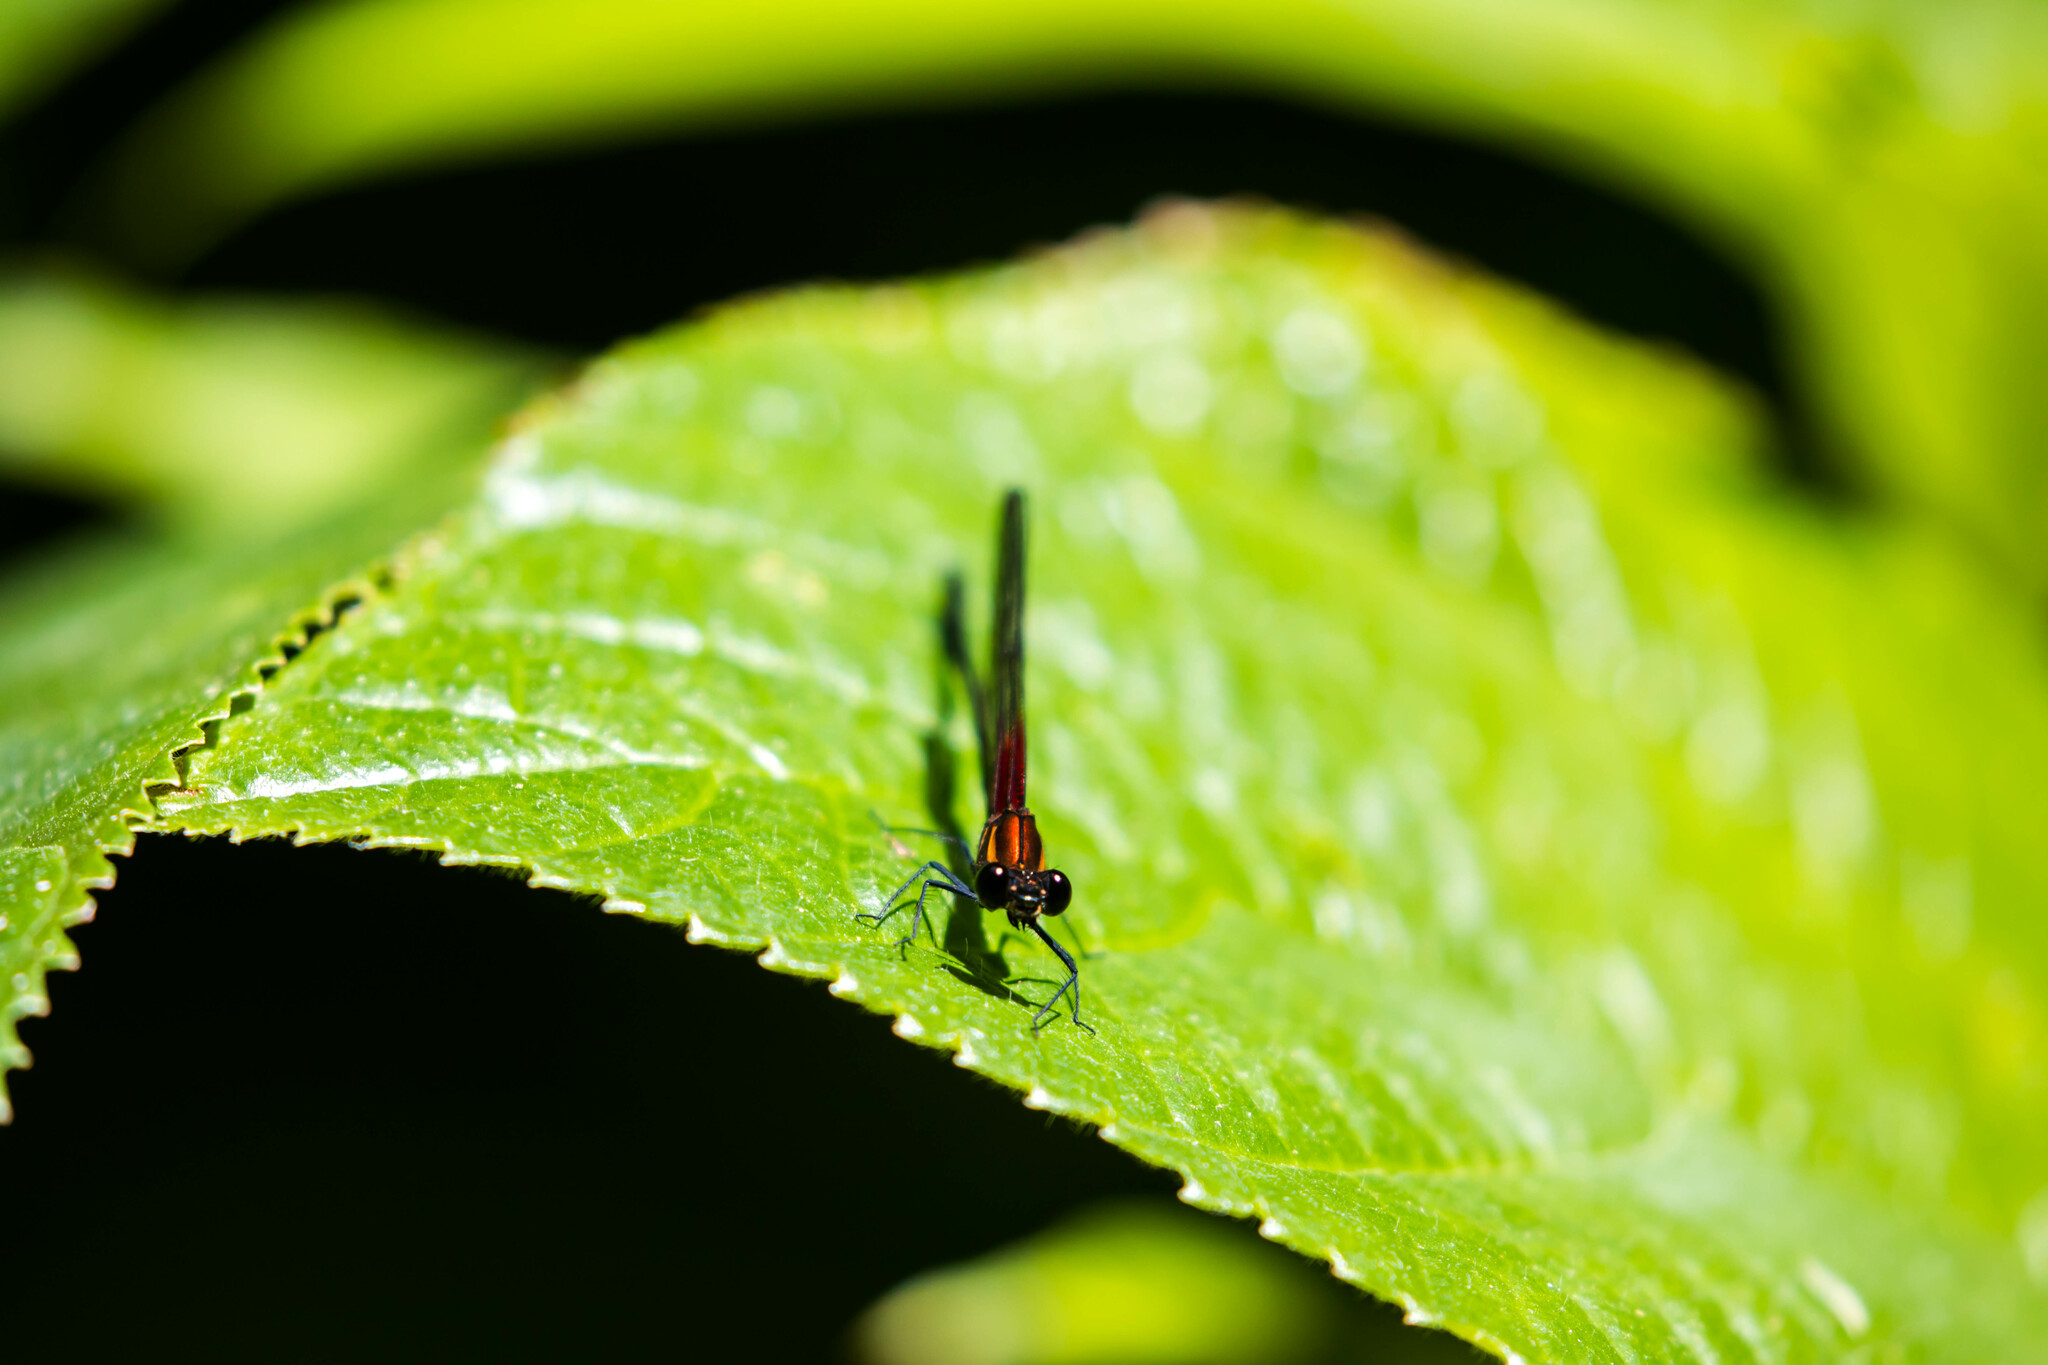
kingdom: Animalia
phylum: Arthropoda
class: Insecta
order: Odonata
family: Calopterygidae
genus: Hetaerina
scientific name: Hetaerina occisa
